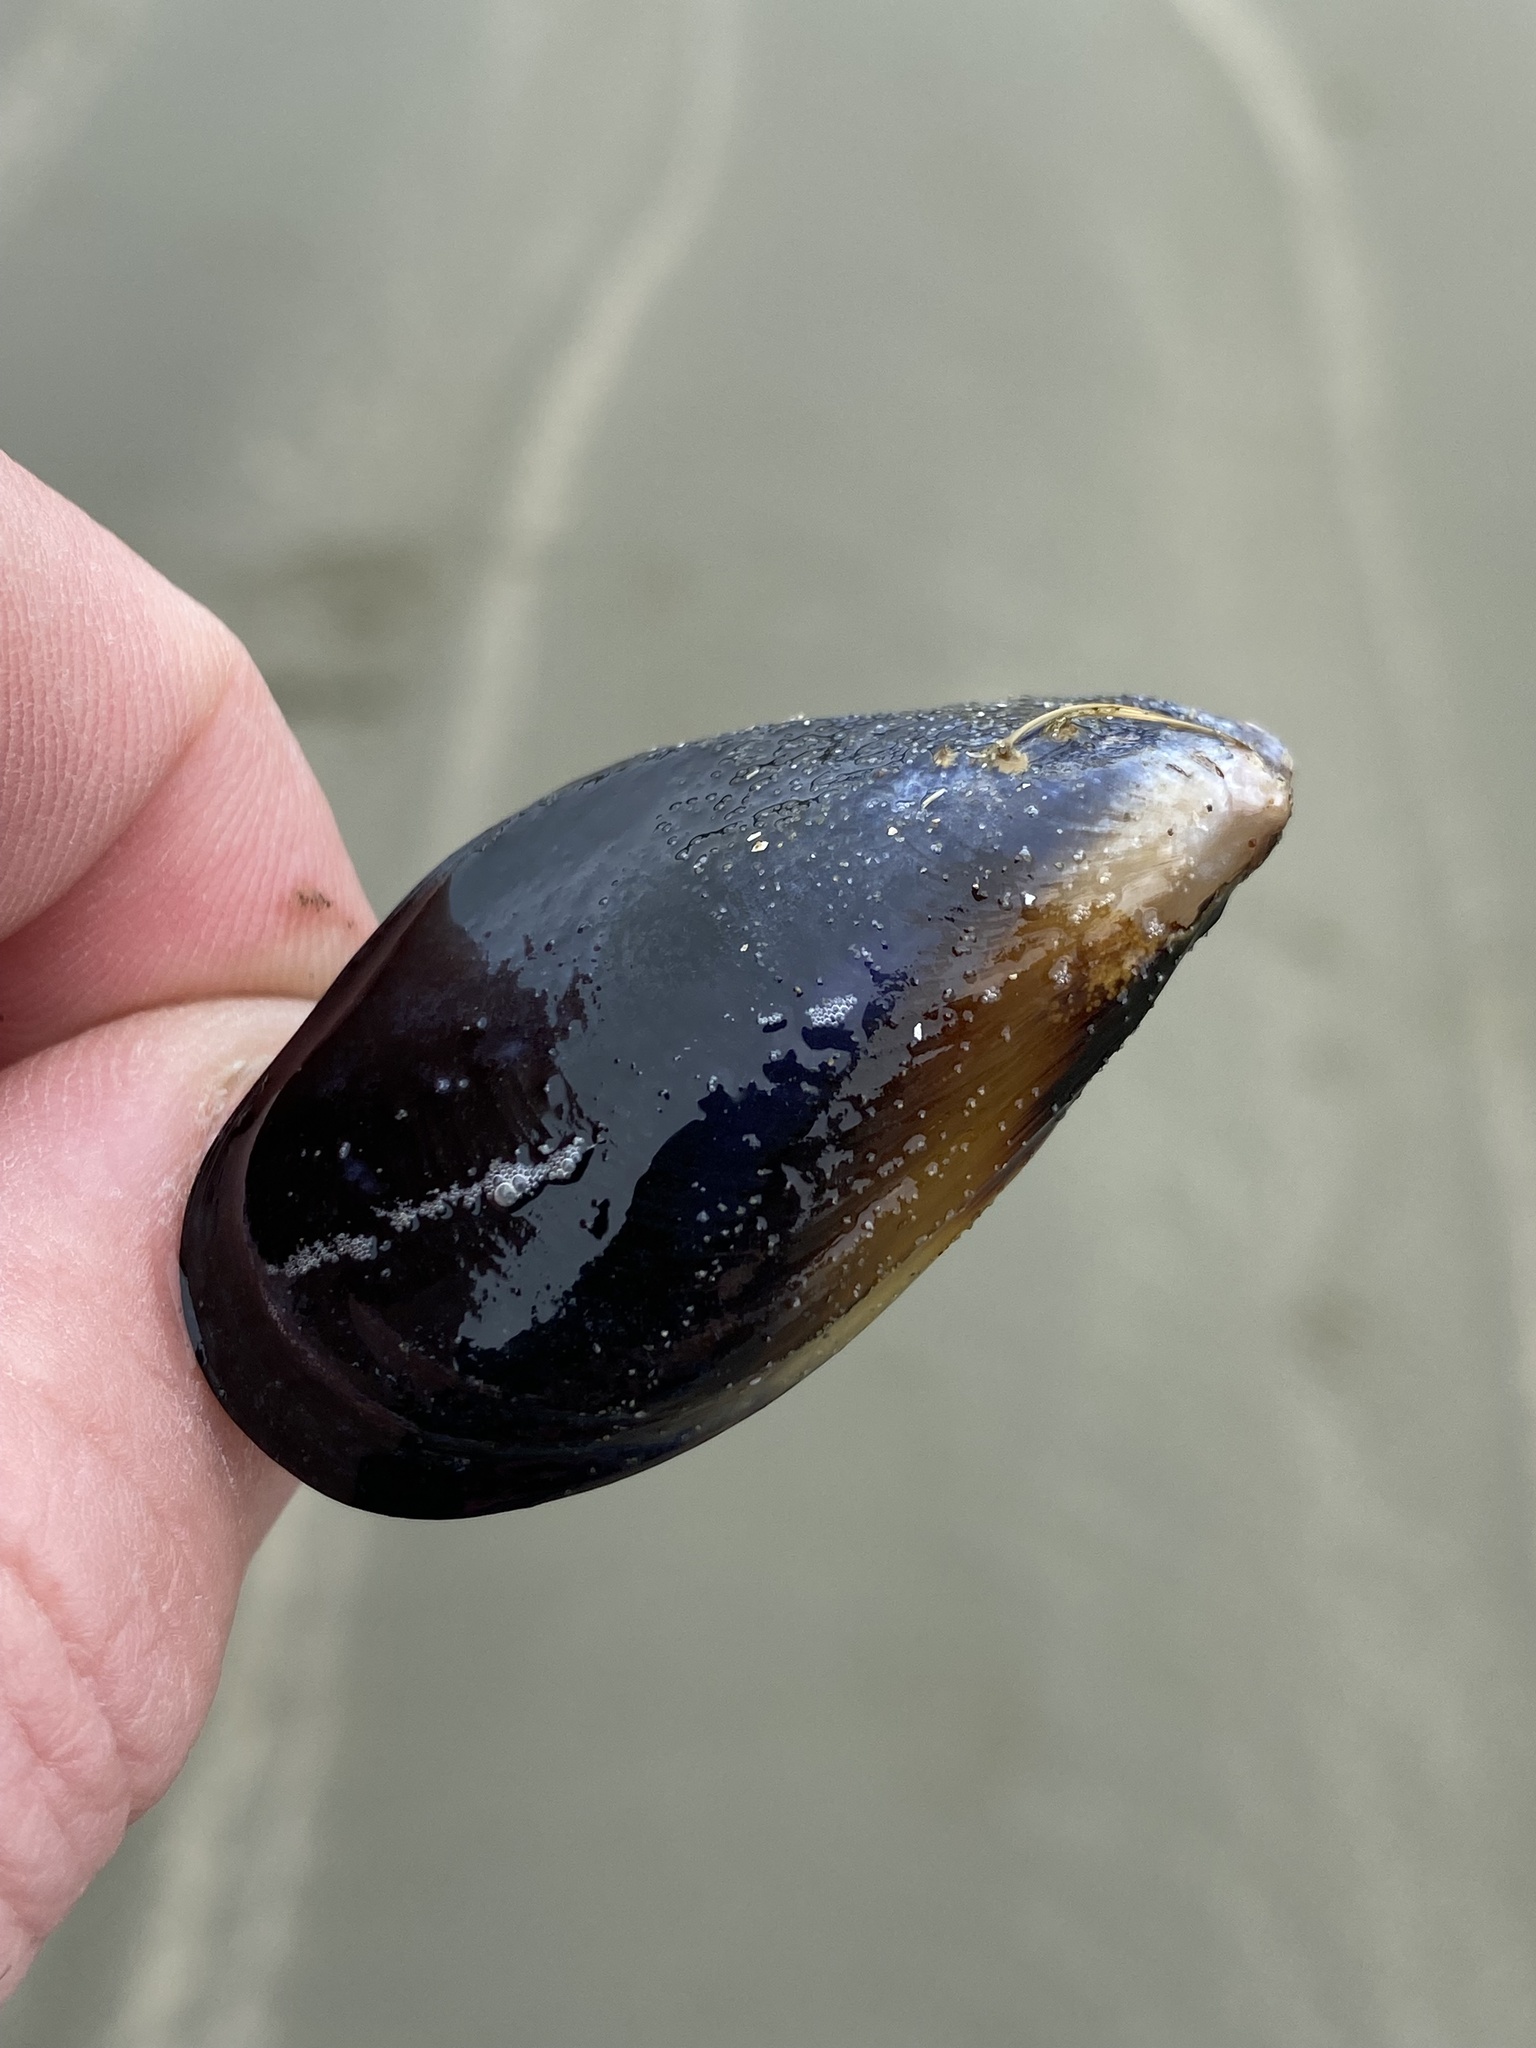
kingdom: Animalia
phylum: Mollusca
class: Bivalvia
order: Mytilida
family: Mytilidae
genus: Mytilus
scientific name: Mytilus planulatus
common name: Australian mussel
